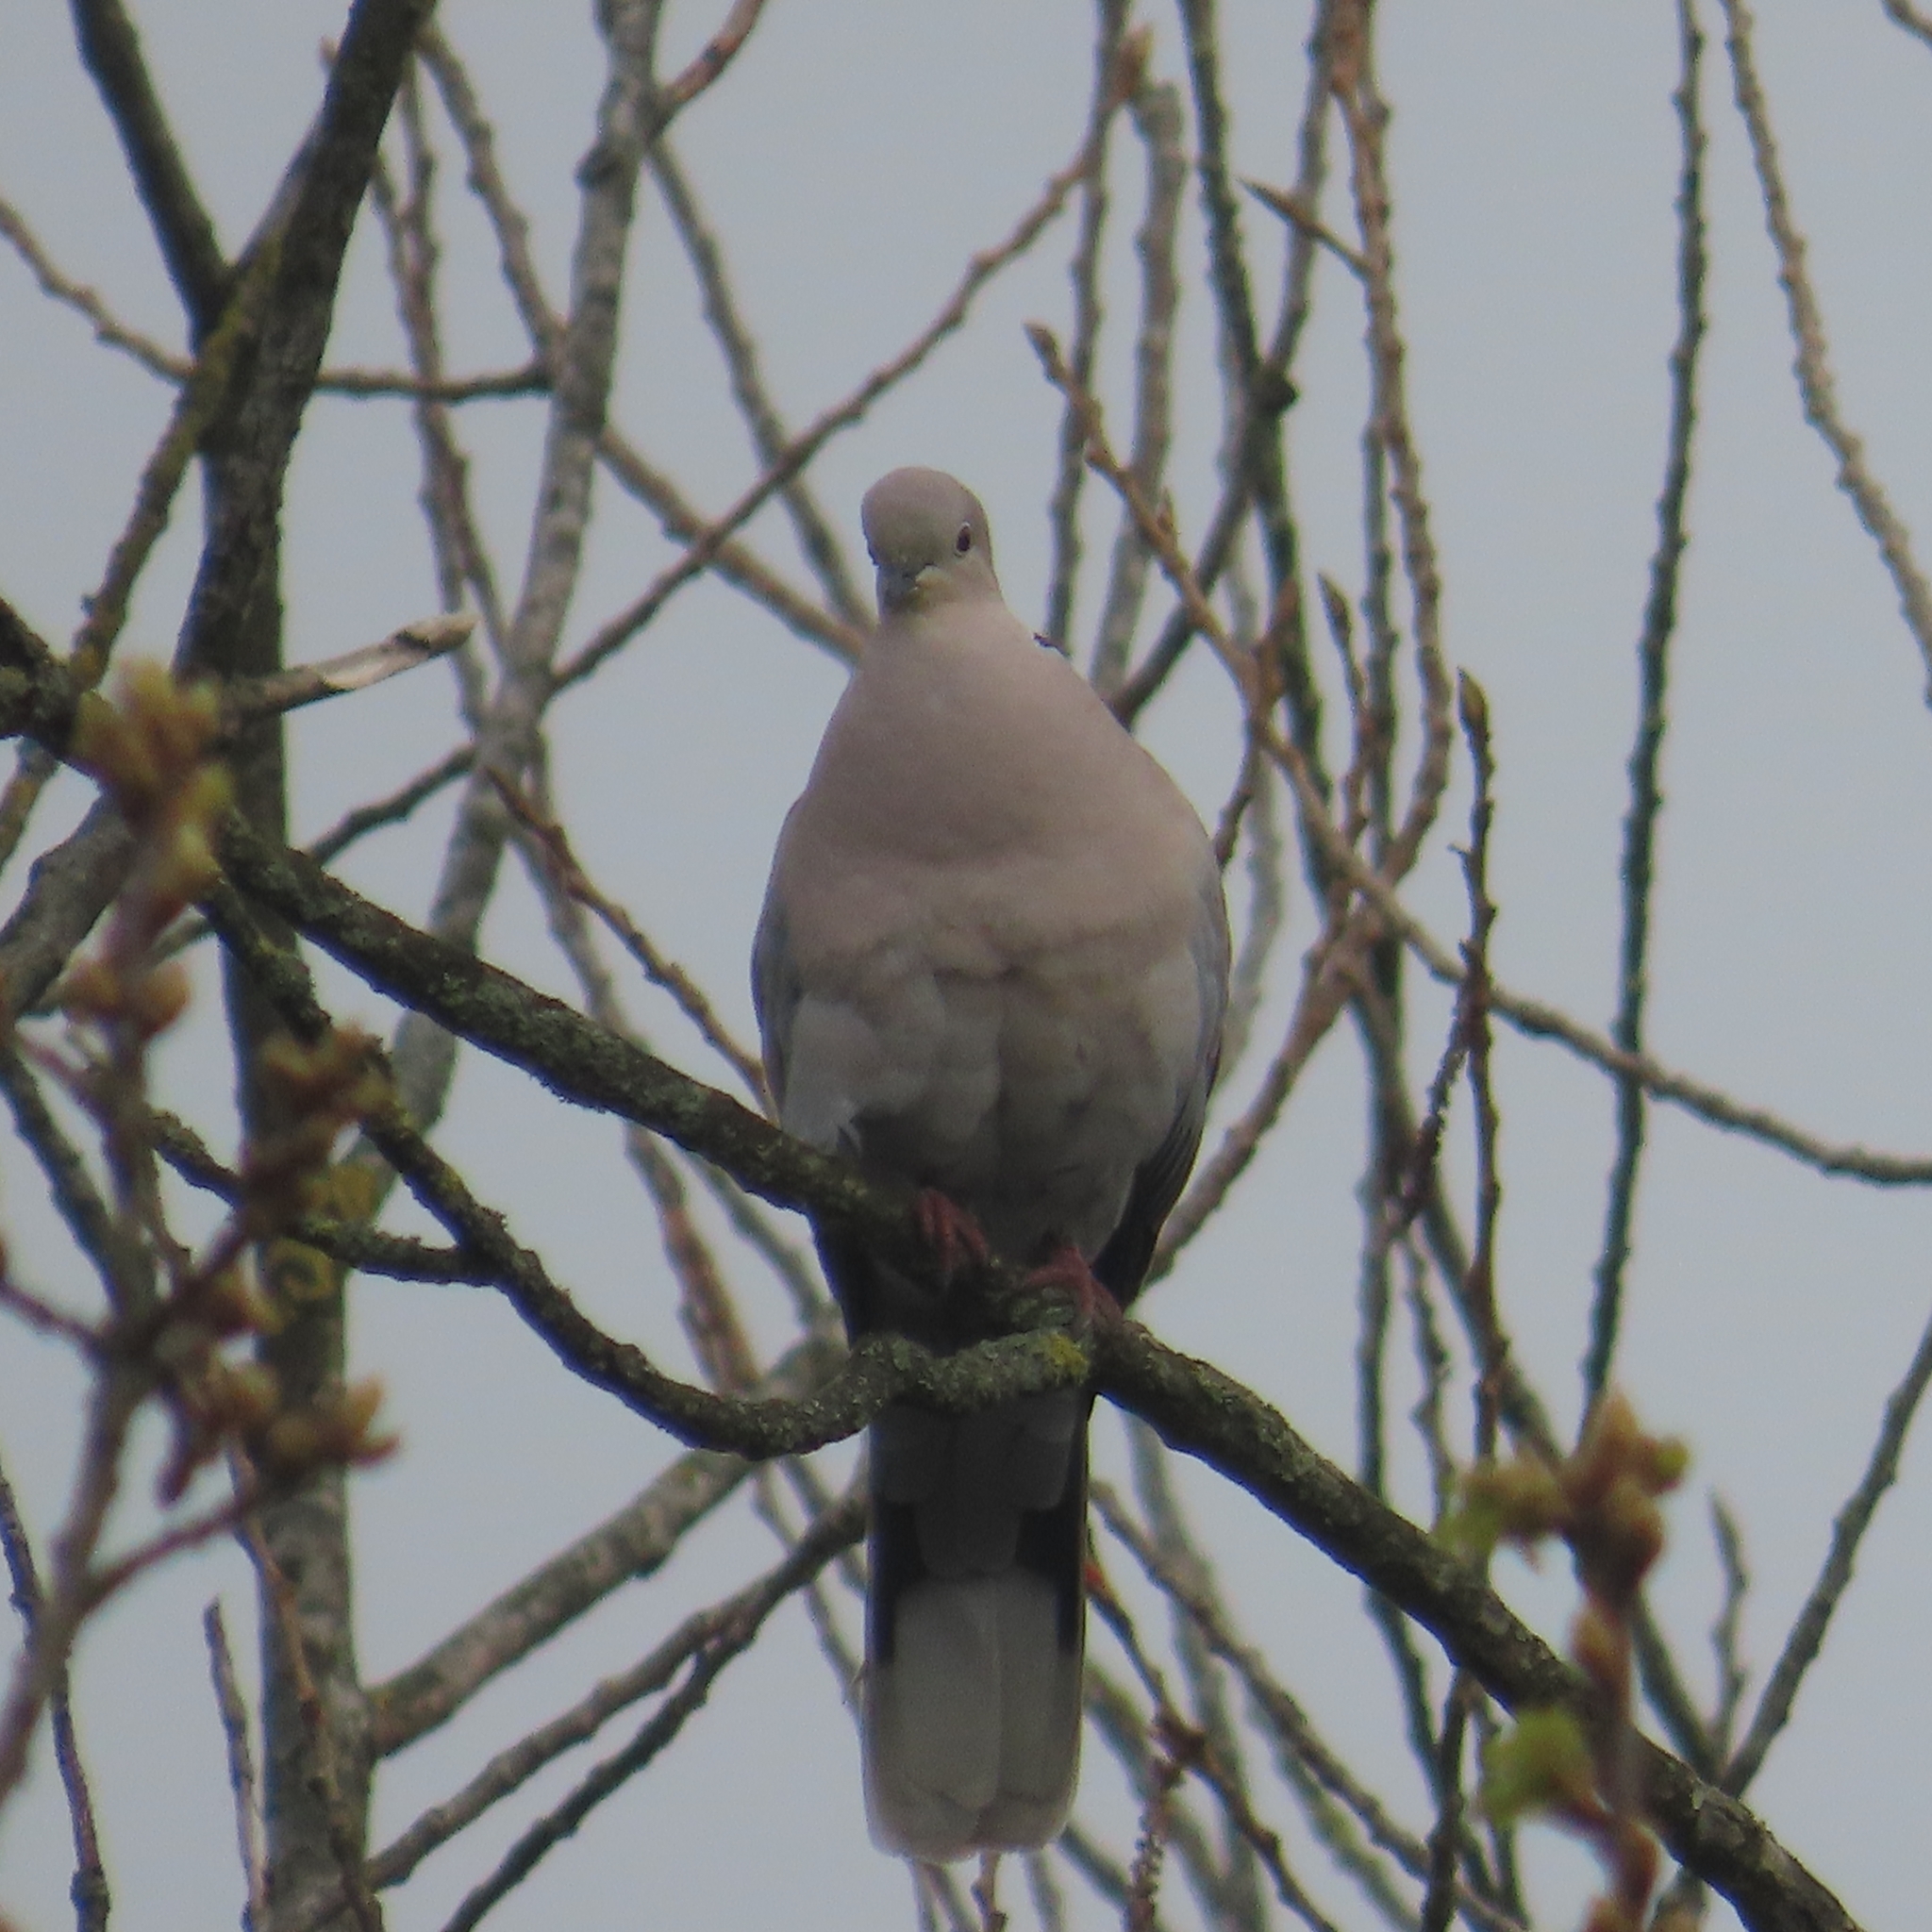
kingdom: Animalia
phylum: Chordata
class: Aves
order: Columbiformes
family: Columbidae
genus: Streptopelia
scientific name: Streptopelia decaocto
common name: Eurasian collared dove
